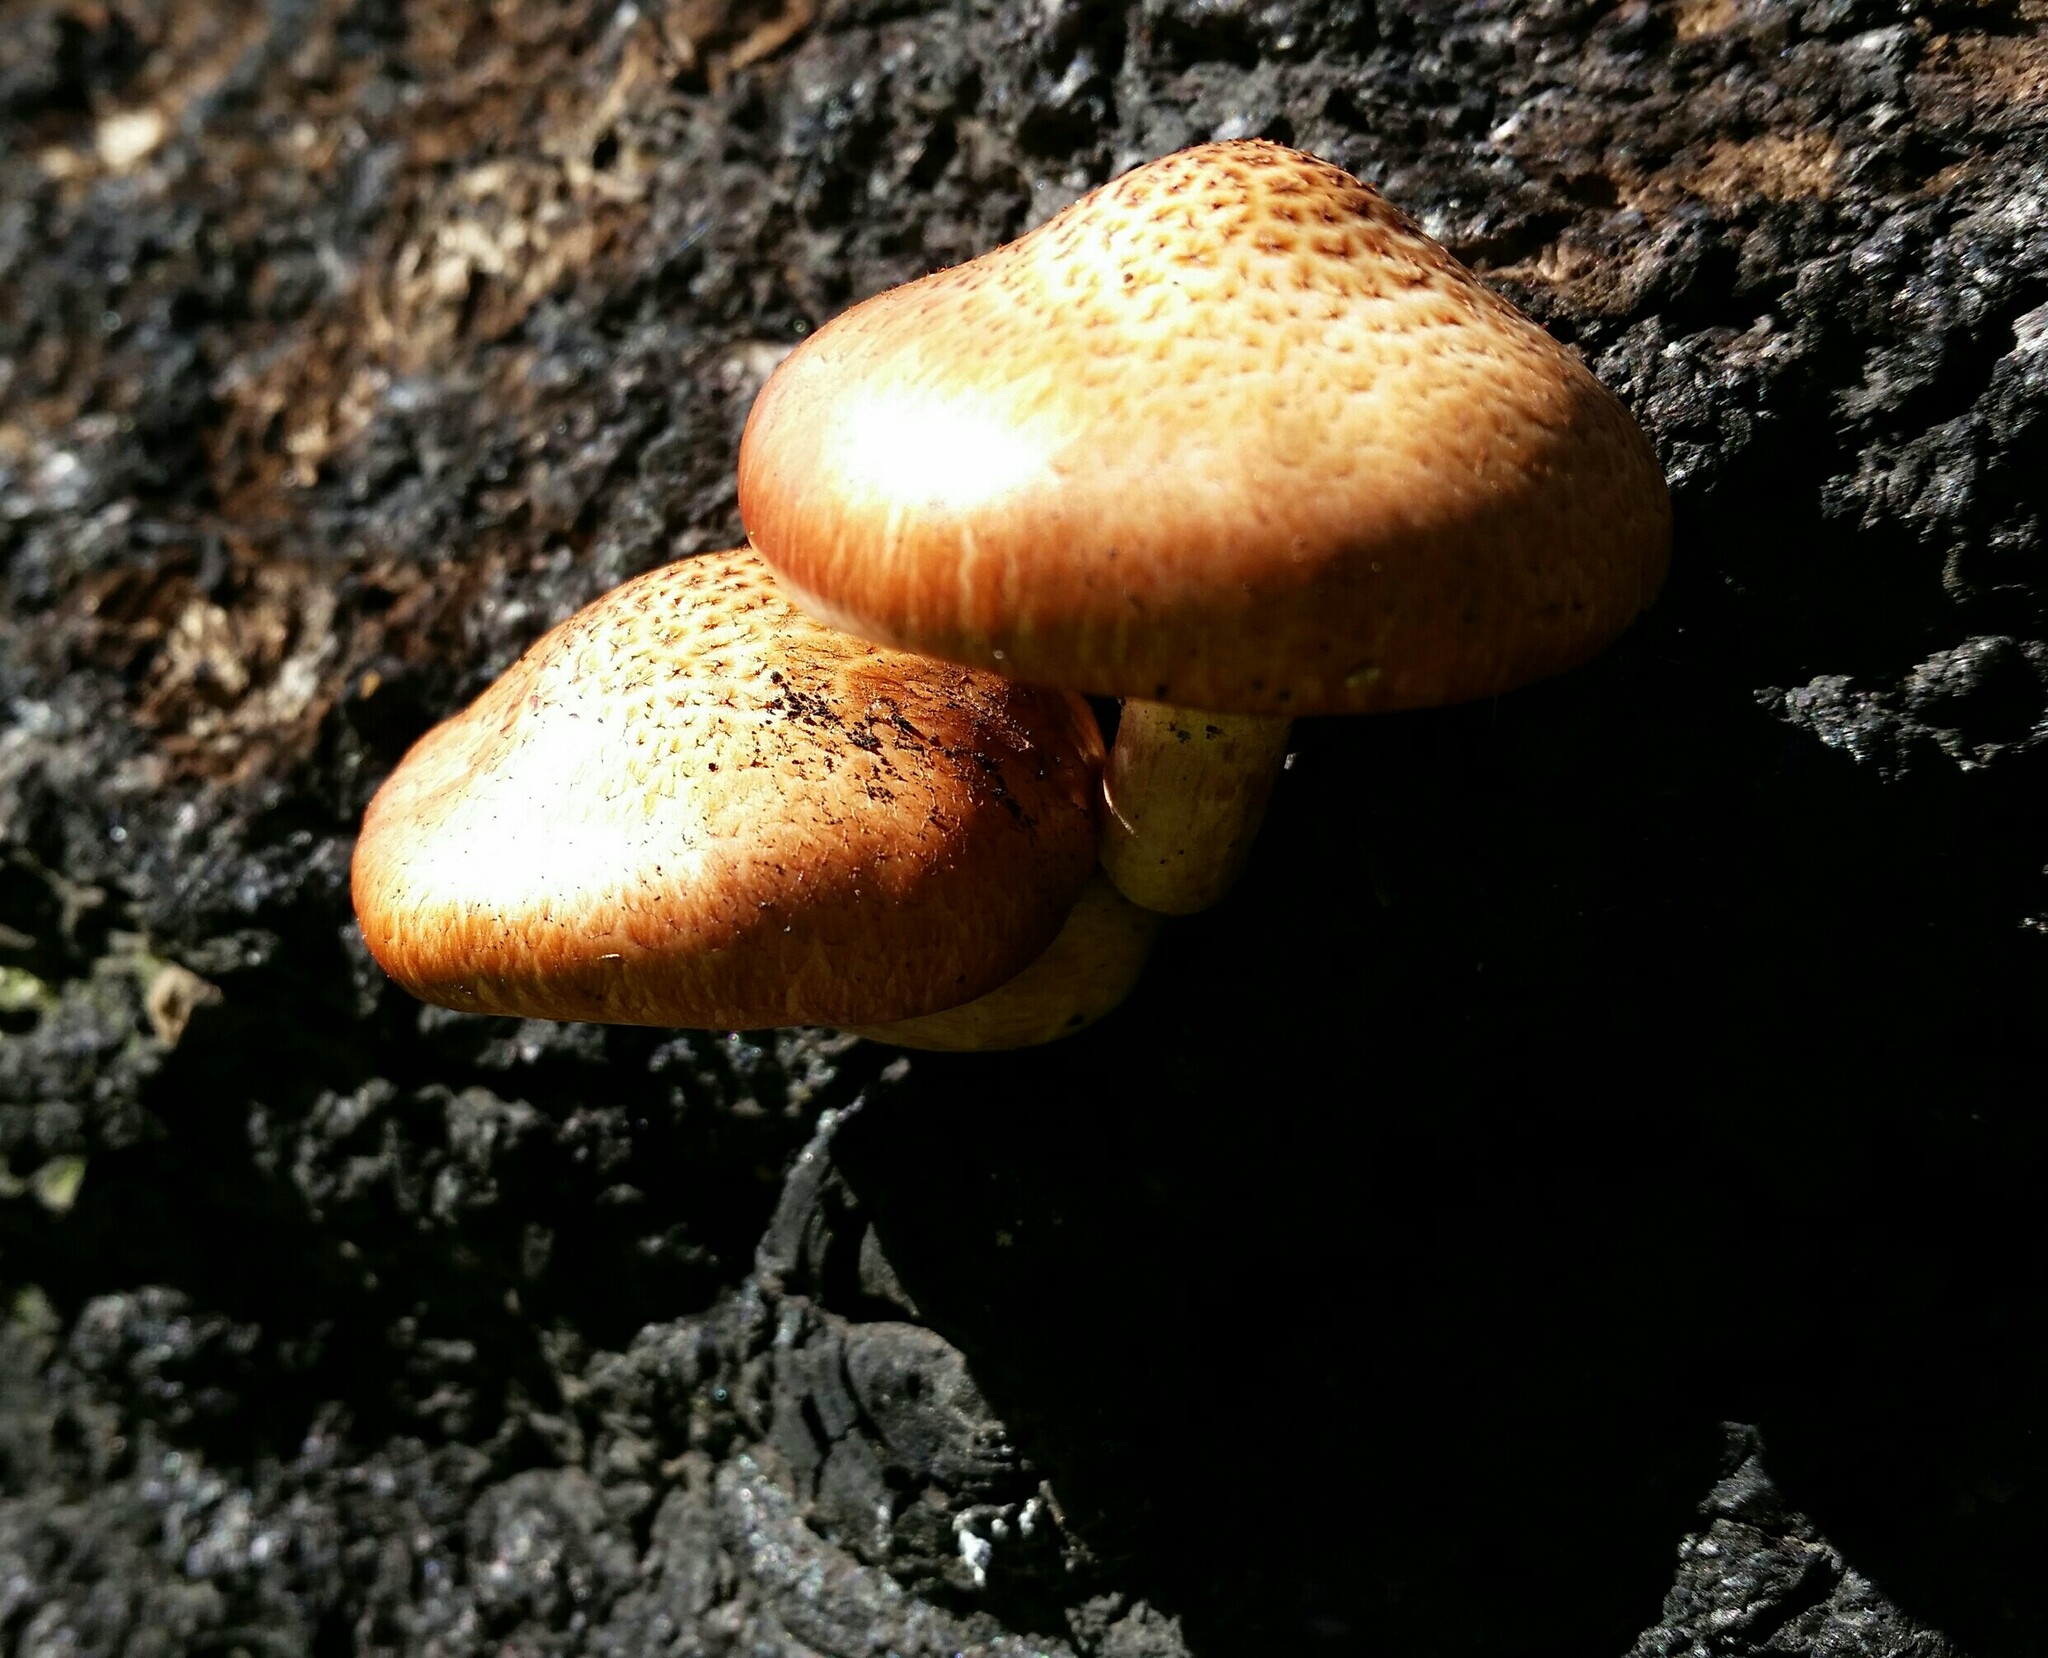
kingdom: Fungi
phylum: Basidiomycota
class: Agaricomycetes
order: Agaricales
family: Hymenogastraceae
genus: Gymnopilus
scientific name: Gymnopilus luteofolius
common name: Yellow-gilled gymnopilus
